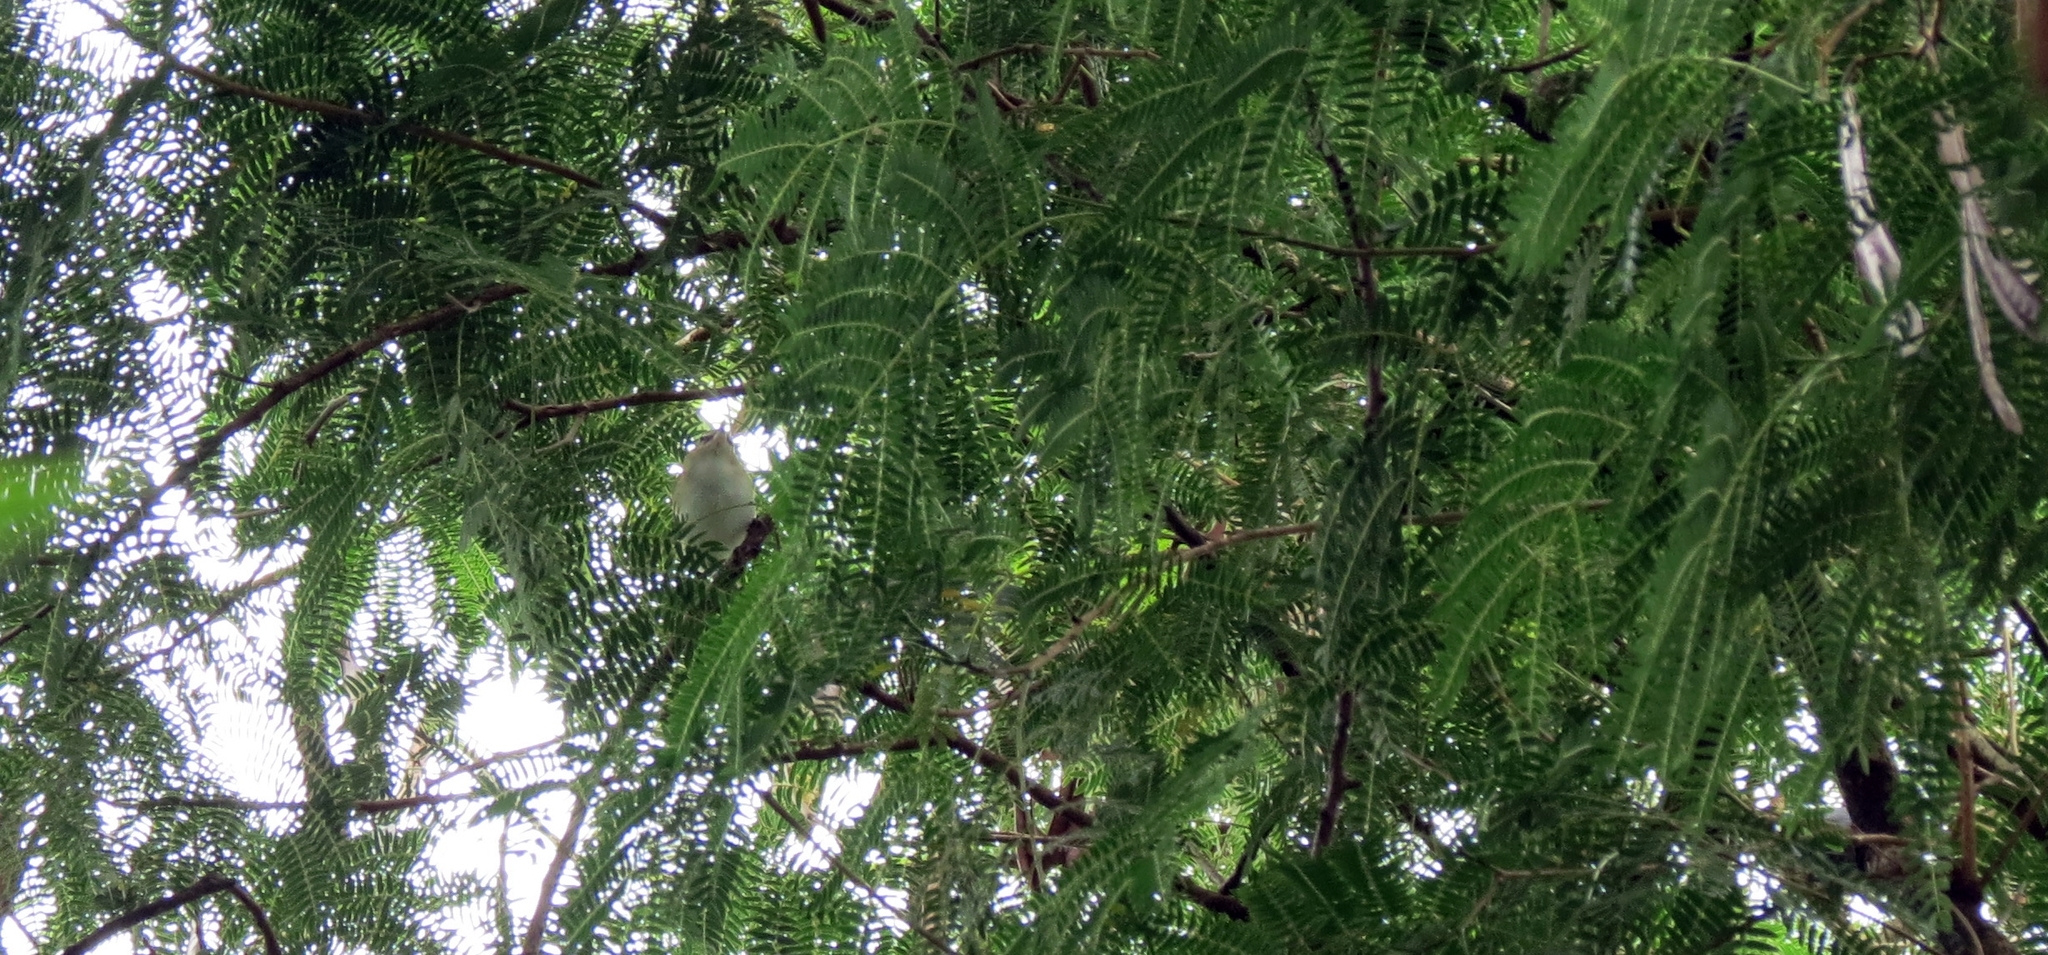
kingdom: Animalia
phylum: Chordata
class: Aves
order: Passeriformes
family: Vireonidae
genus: Vireo
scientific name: Vireo olivaceus
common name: Red-eyed vireo
